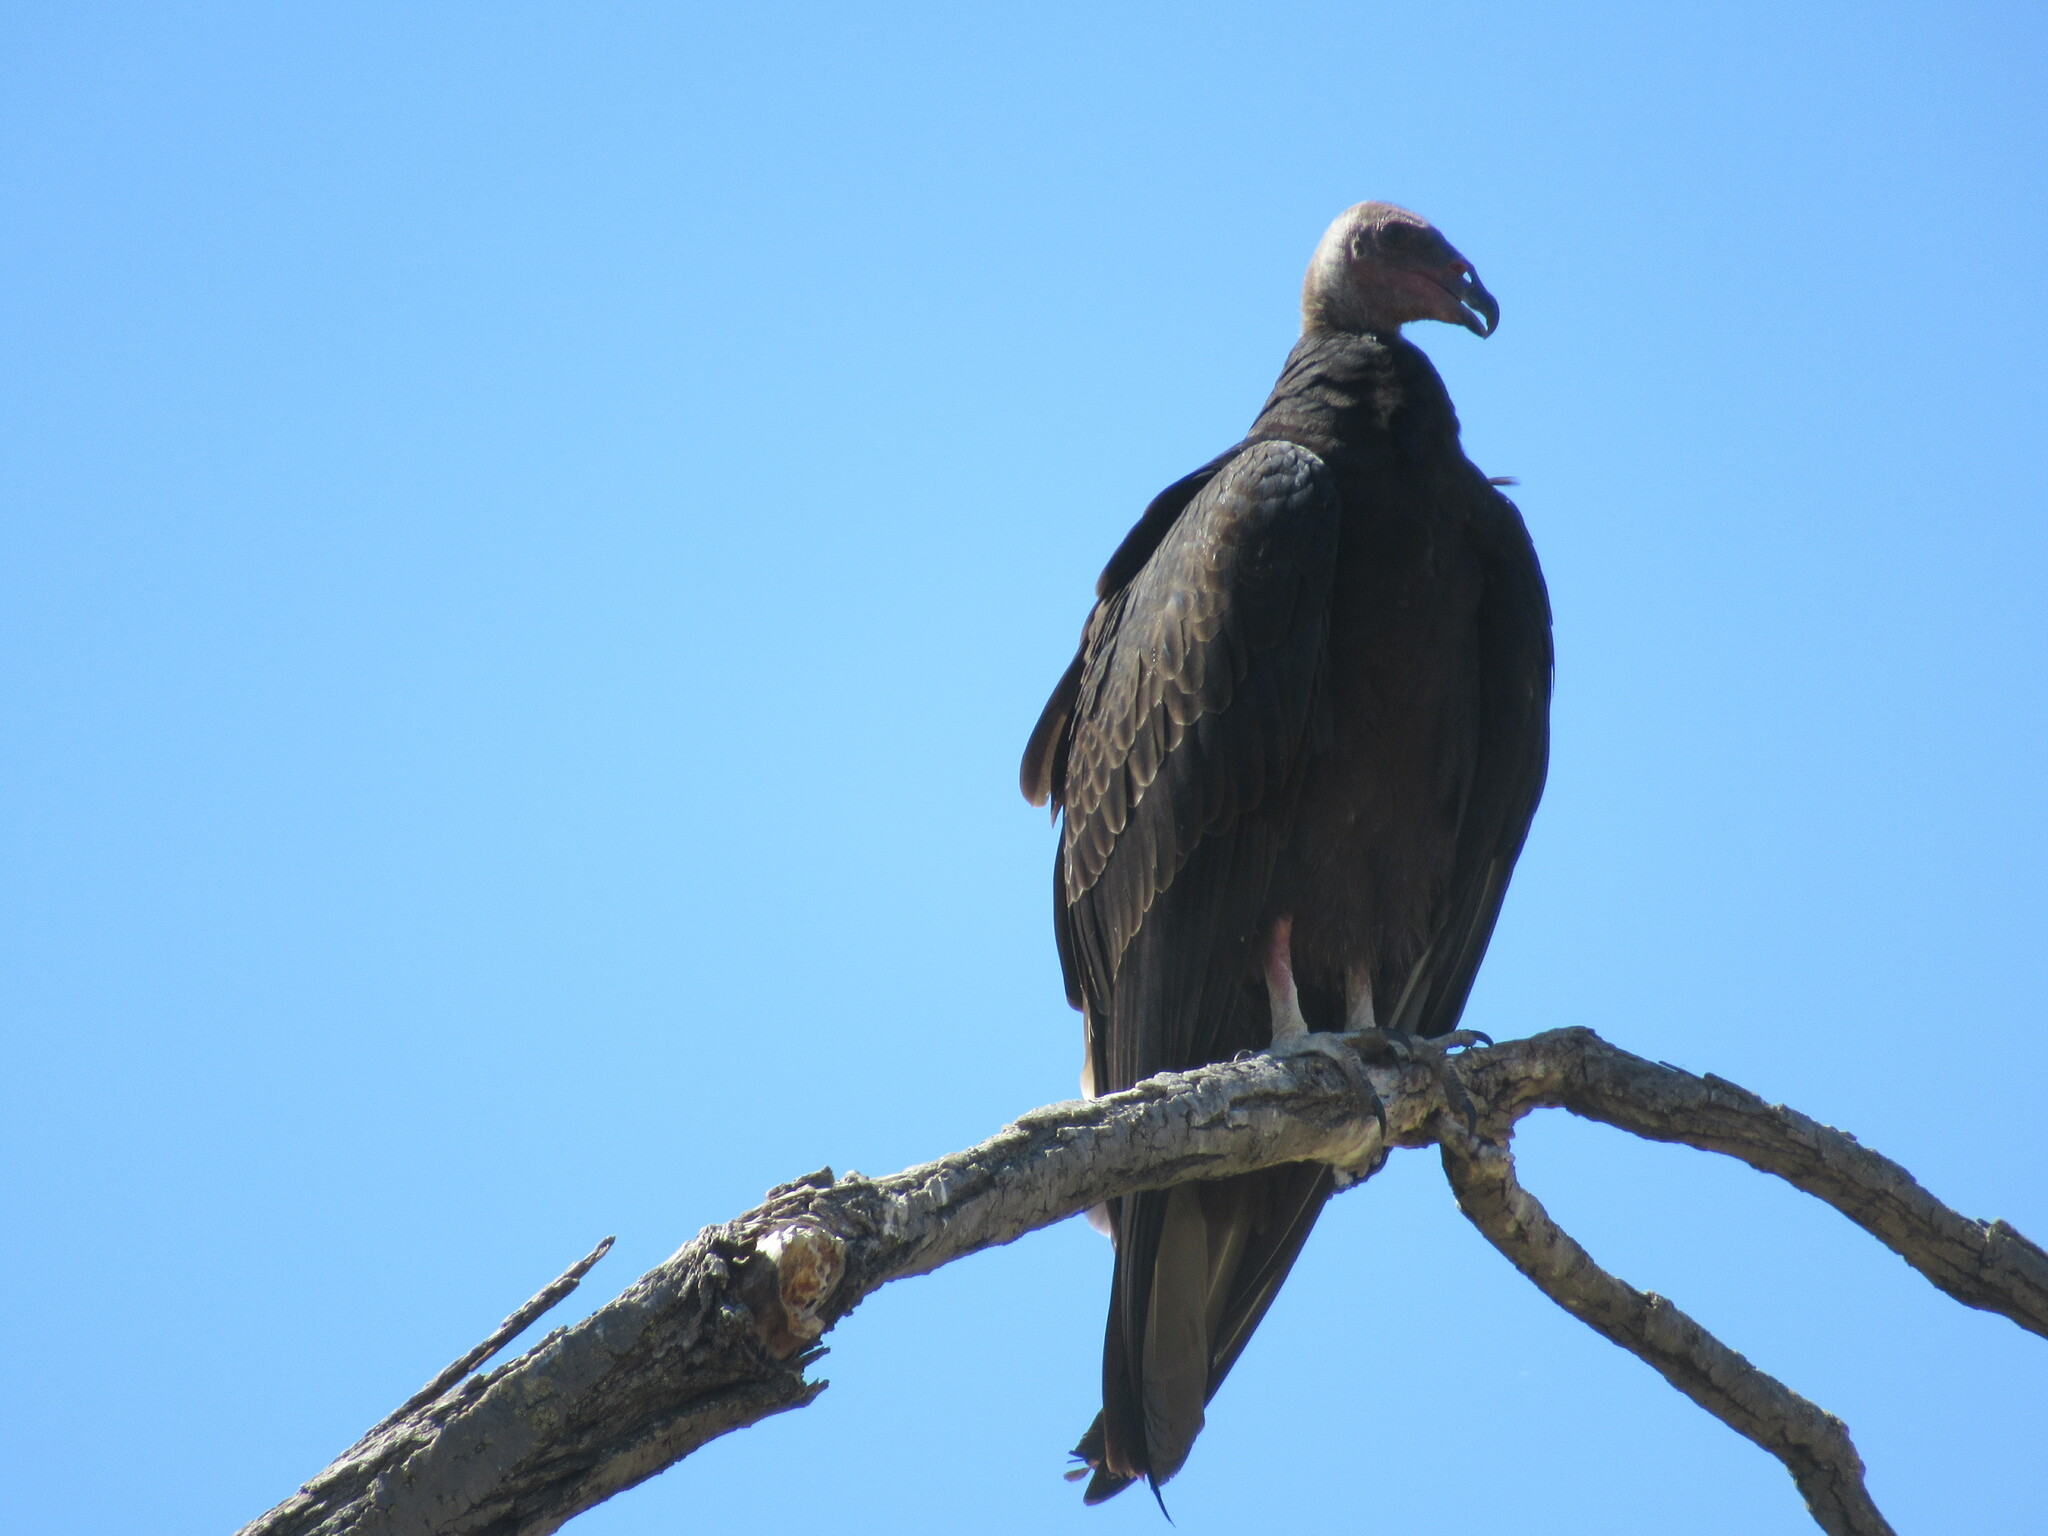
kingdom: Animalia
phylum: Chordata
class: Aves
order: Accipitriformes
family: Cathartidae
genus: Cathartes
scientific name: Cathartes aura
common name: Turkey vulture
